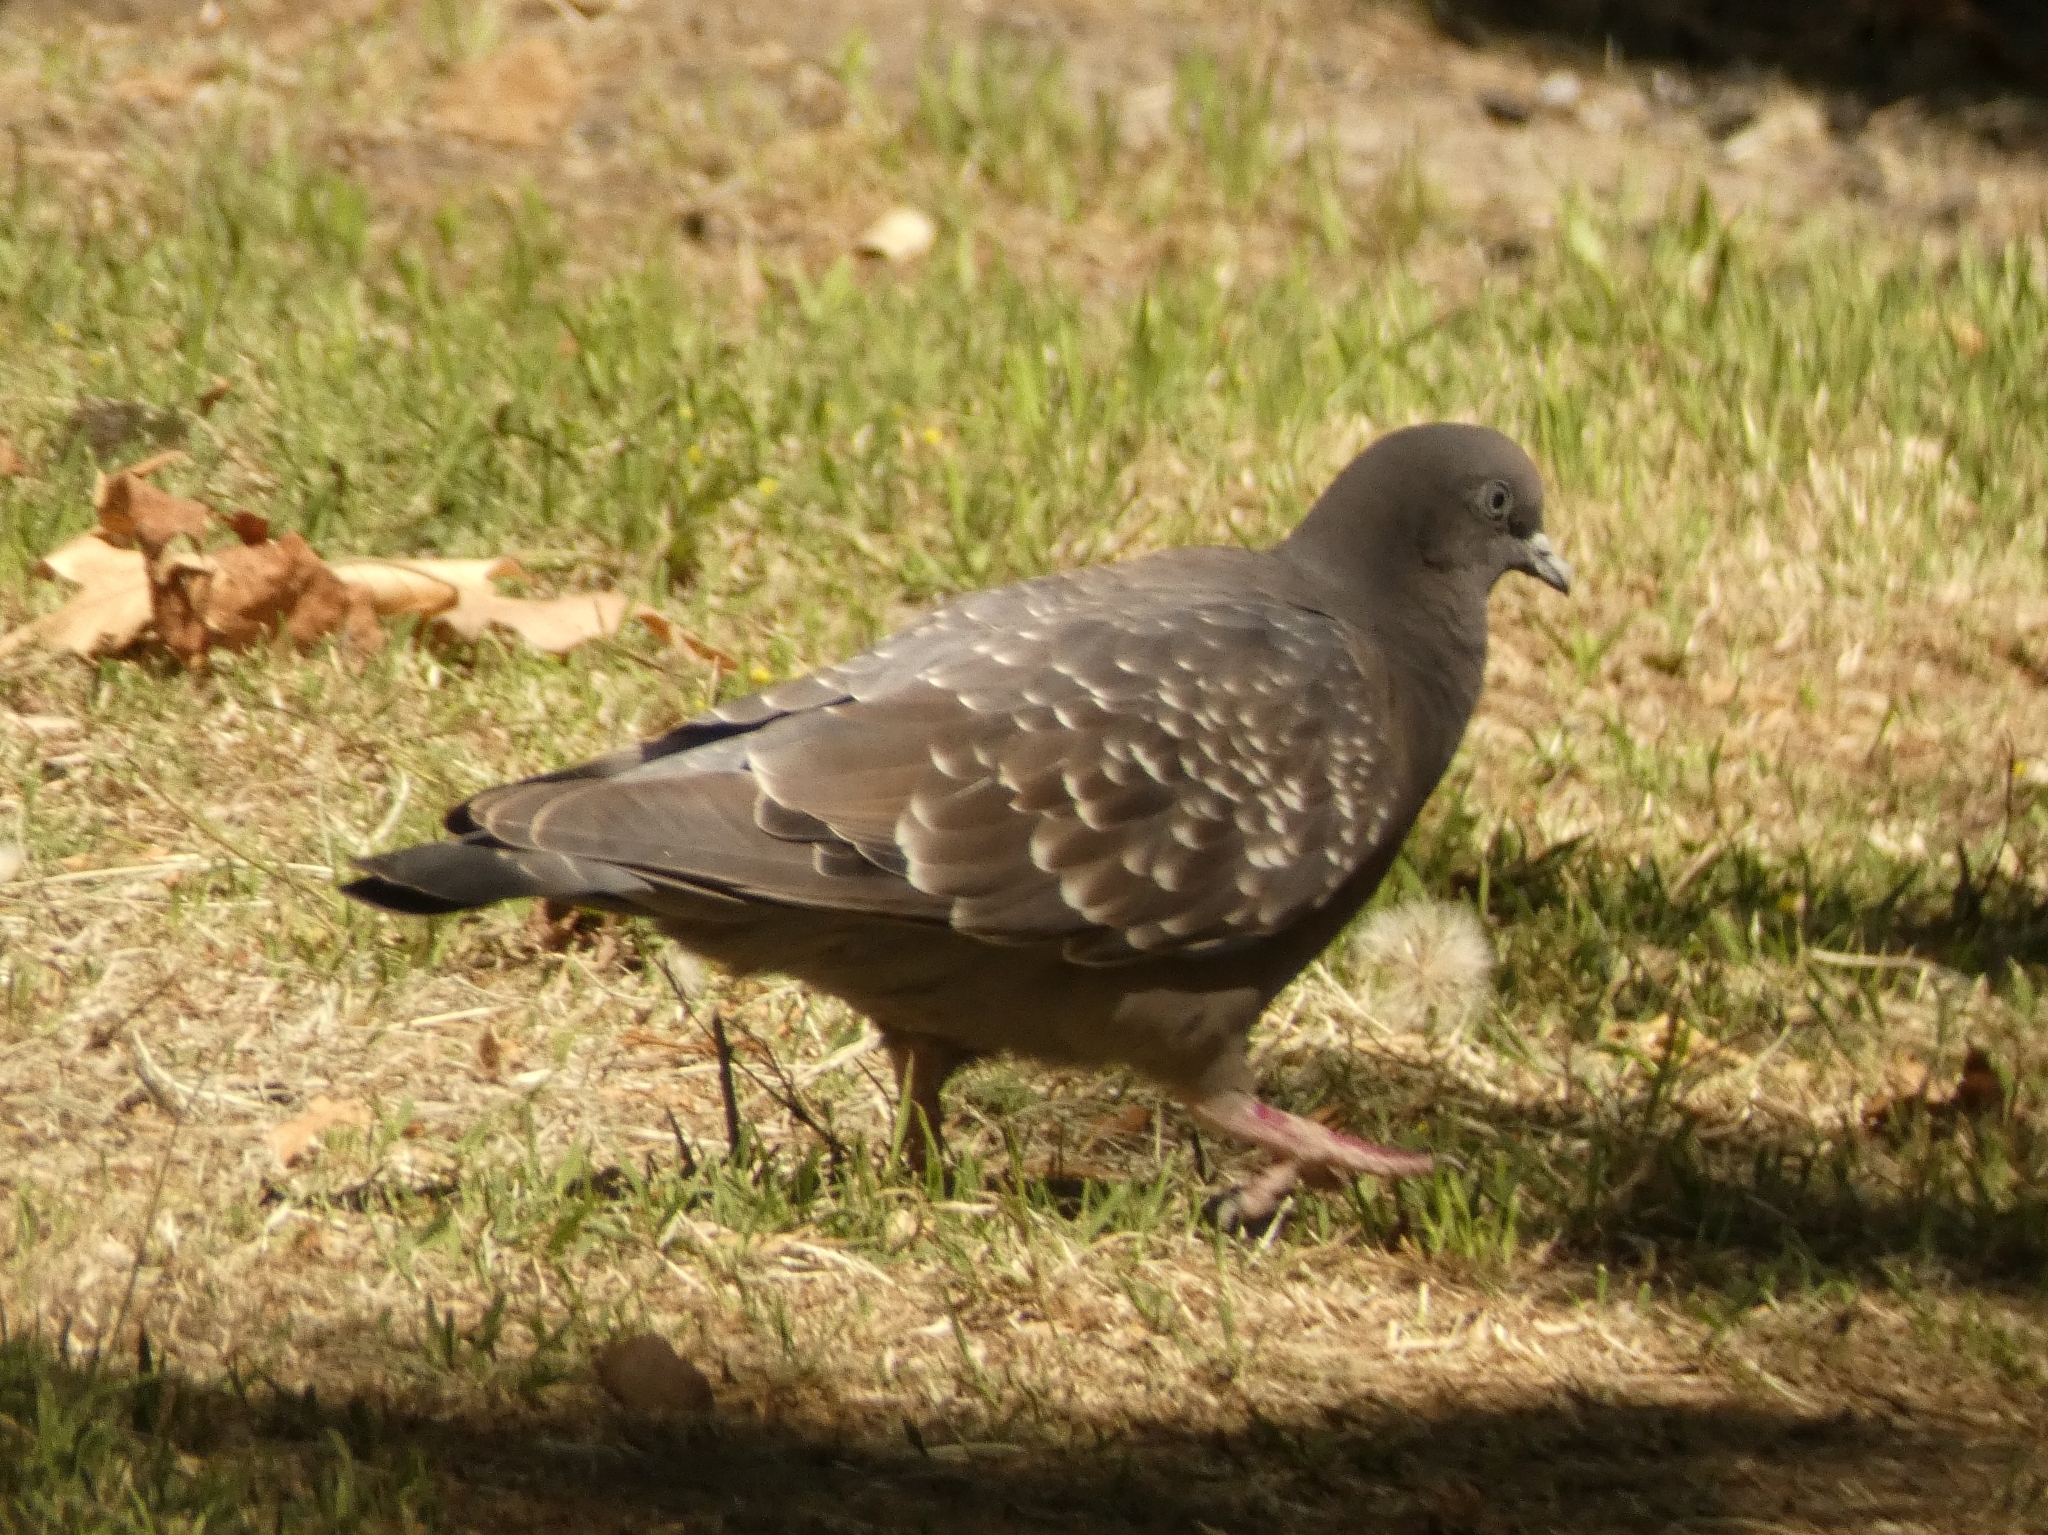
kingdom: Animalia
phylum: Chordata
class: Aves
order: Columbiformes
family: Columbidae
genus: Patagioenas
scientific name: Patagioenas maculosa
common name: Spot-winged pigeon
